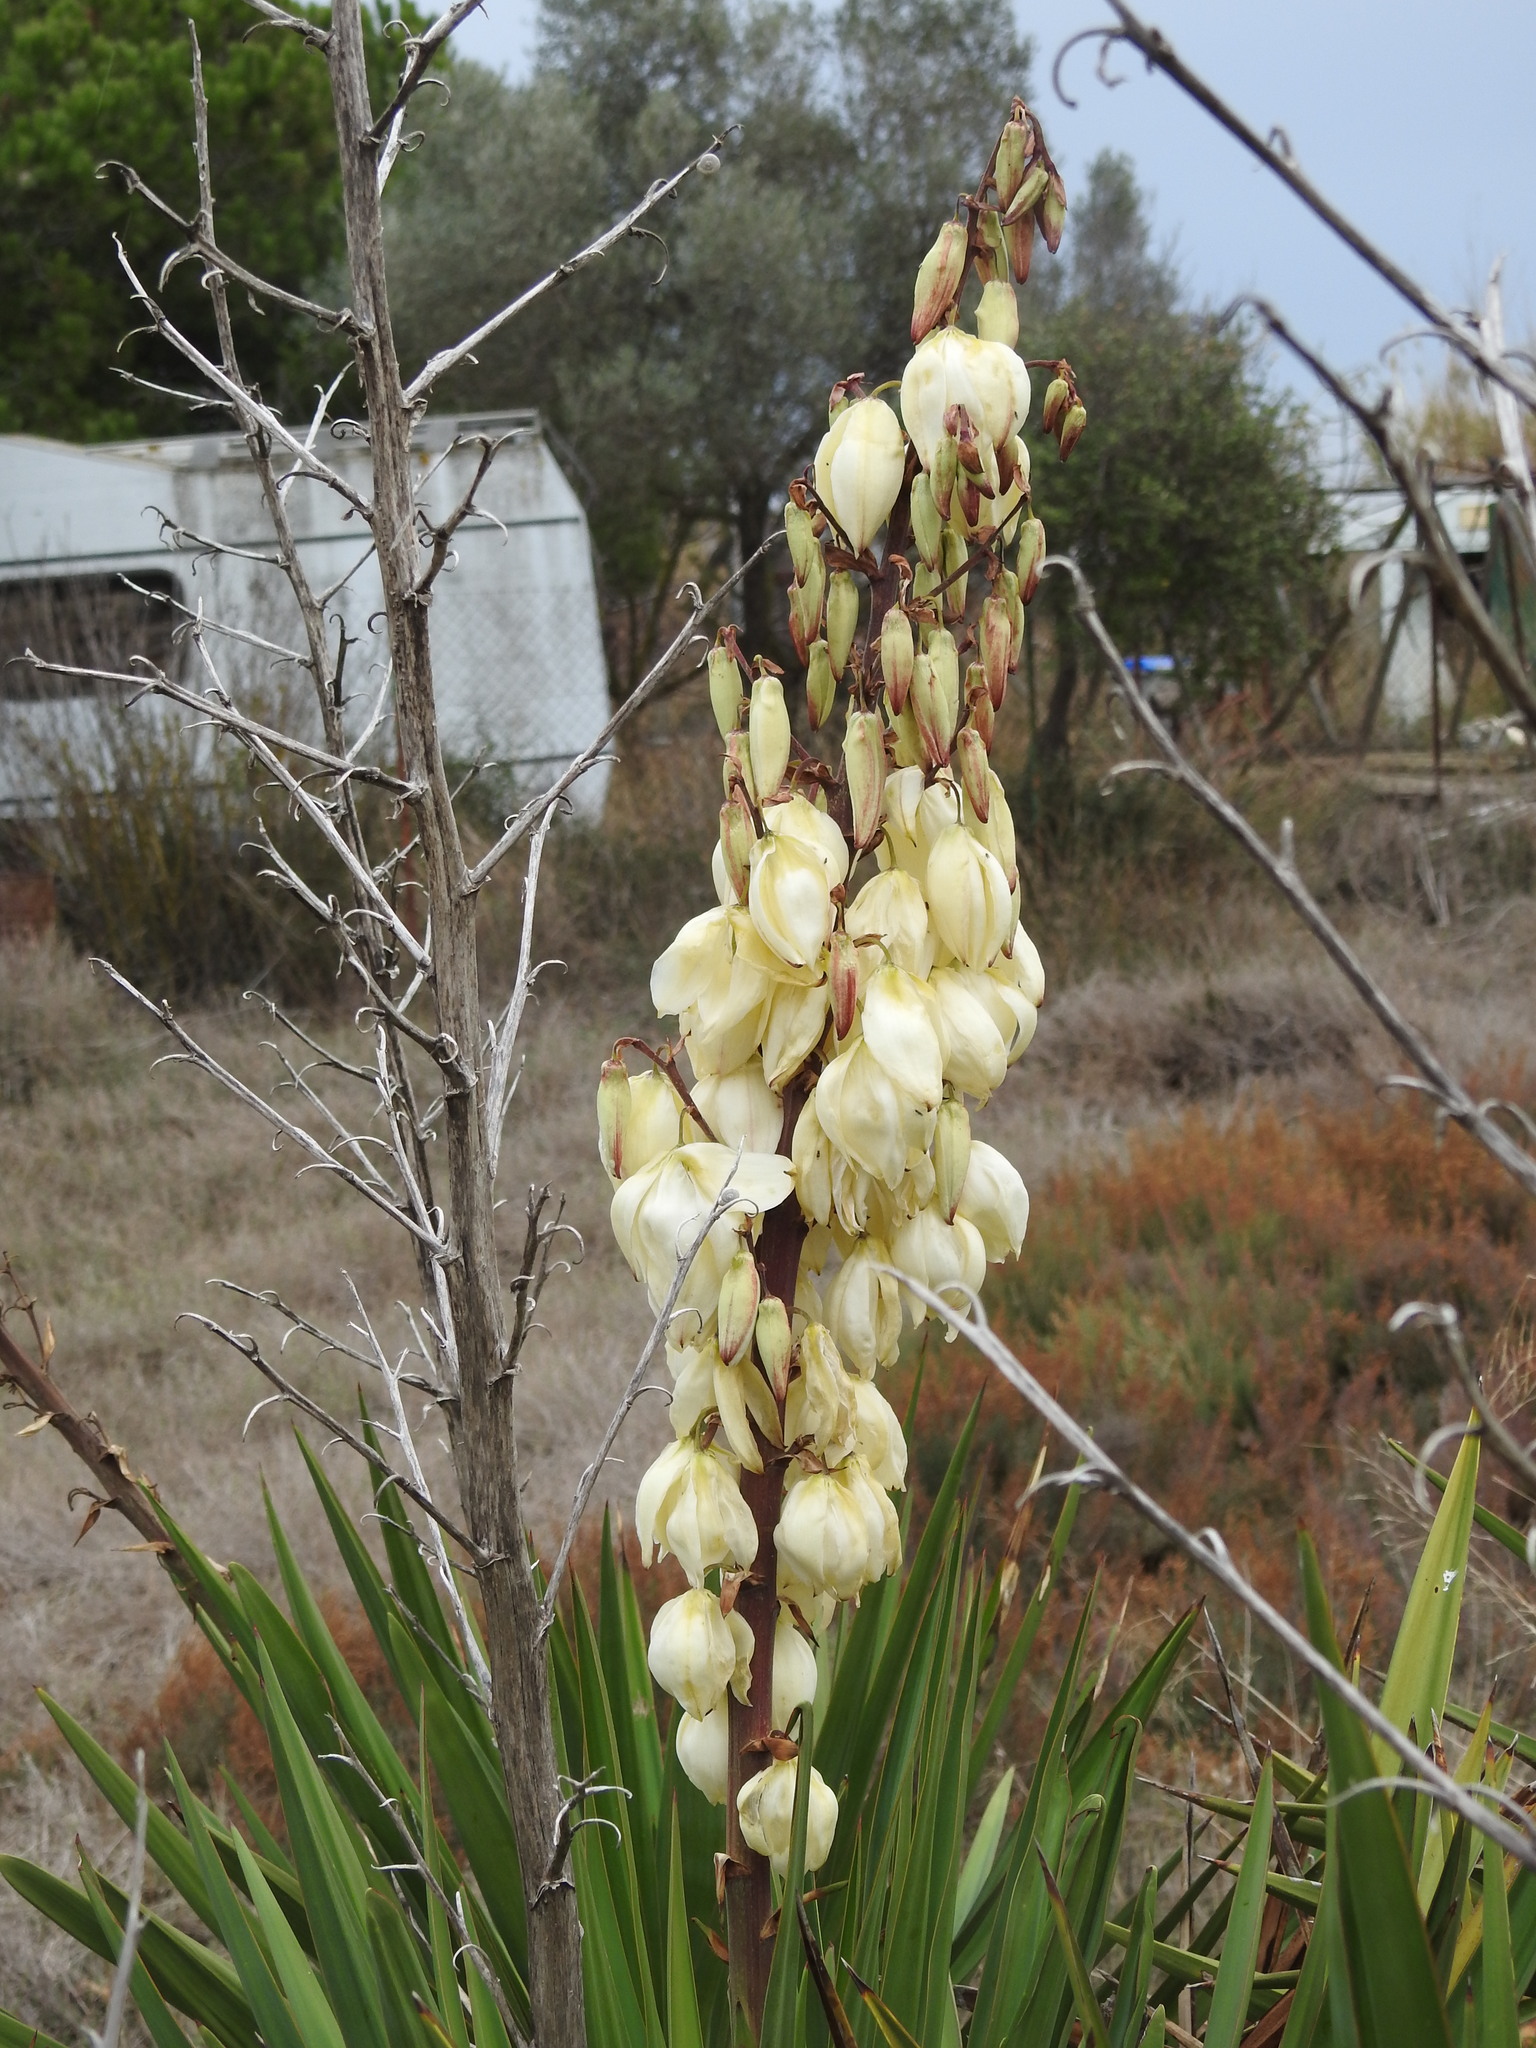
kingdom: Plantae
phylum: Tracheophyta
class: Liliopsida
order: Asparagales
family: Asparagaceae
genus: Yucca
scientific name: Yucca gloriosa
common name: Spanish-dagger
